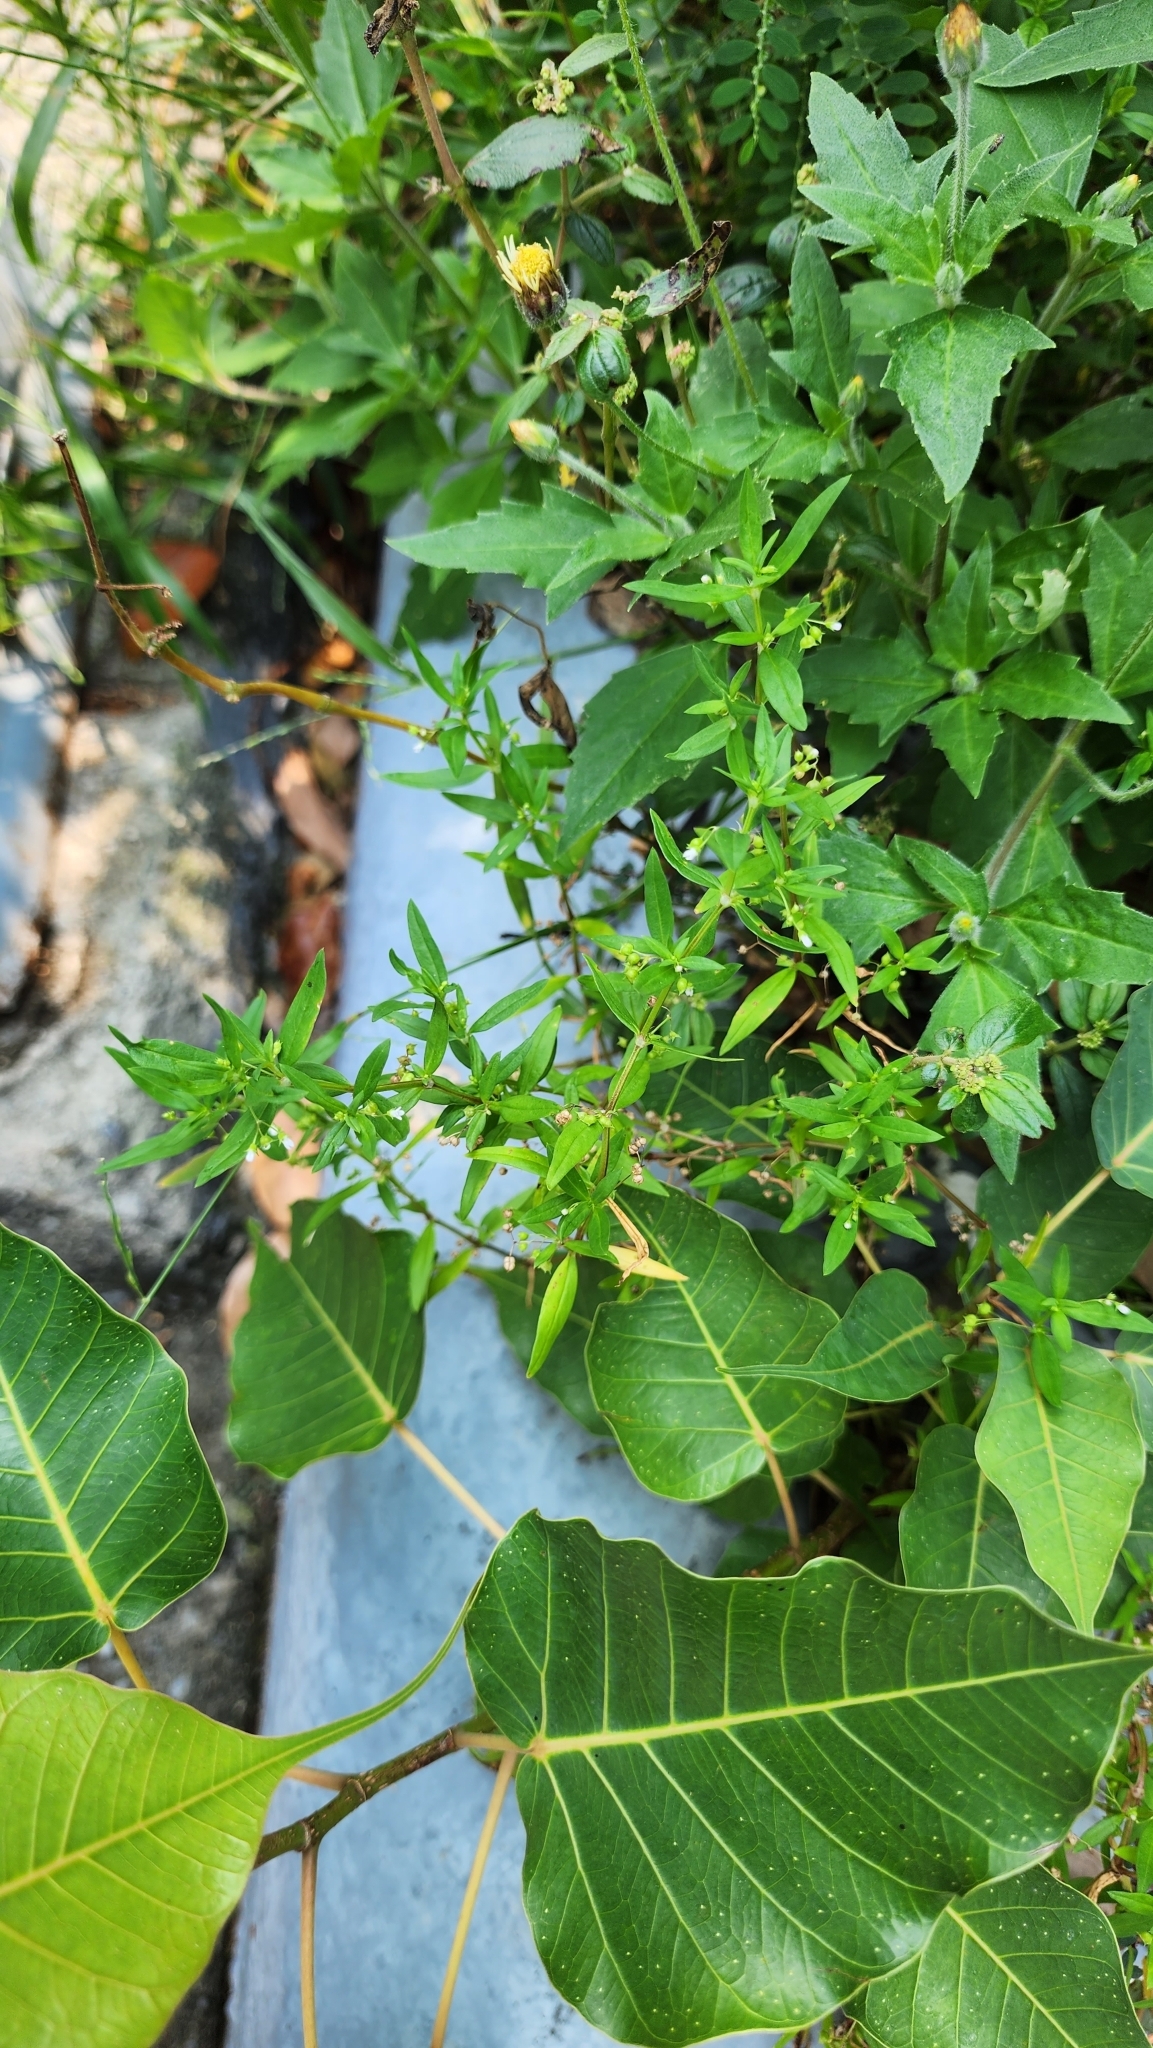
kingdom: Plantae
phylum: Tracheophyta
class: Magnoliopsida
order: Gentianales
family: Rubiaceae
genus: Oldenlandia
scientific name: Oldenlandia corymbosa
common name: Flat-top mille graines
